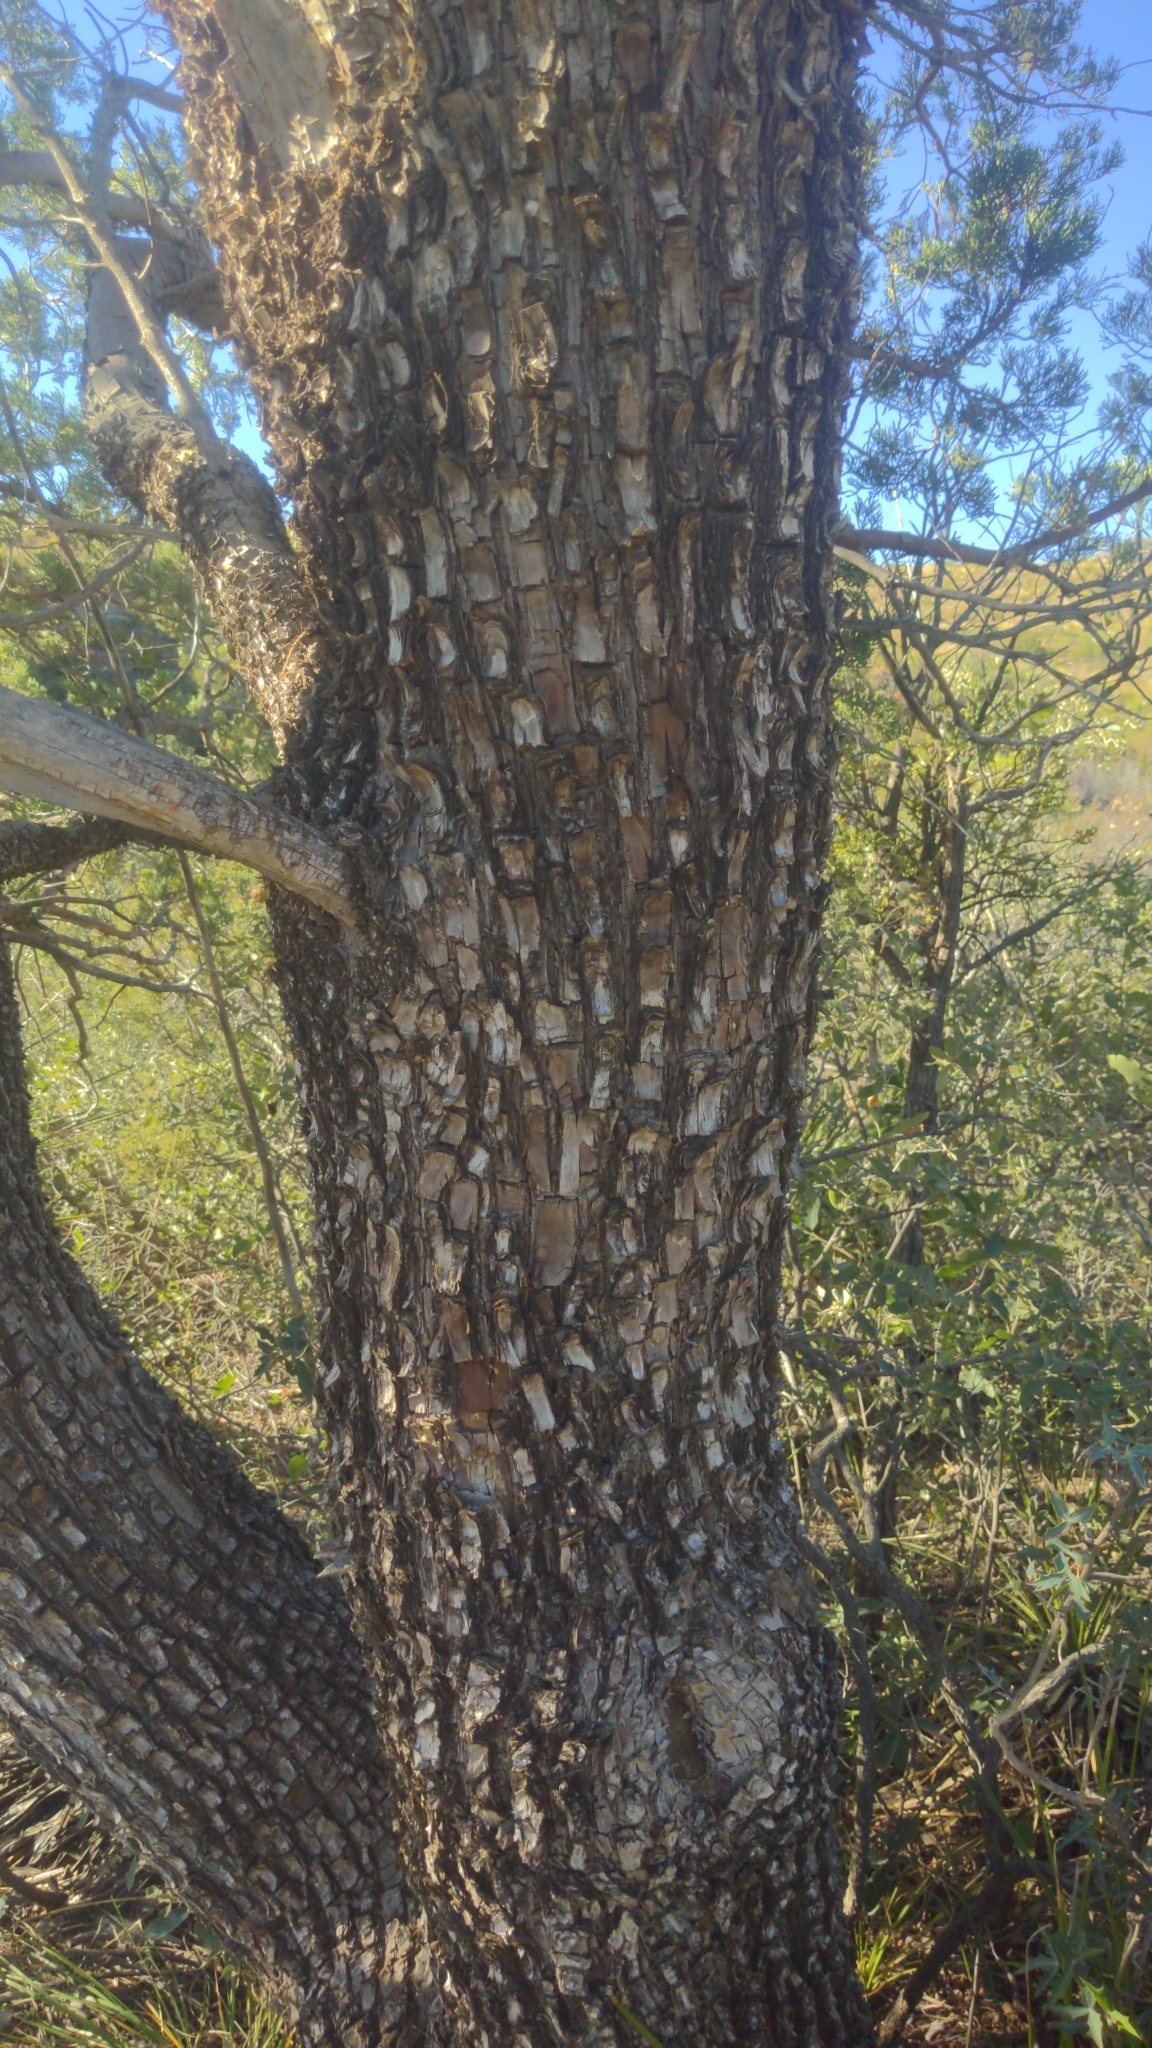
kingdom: Plantae
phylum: Tracheophyta
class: Pinopsida
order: Pinales
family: Cupressaceae
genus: Juniperus
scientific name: Juniperus deppeana
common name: Alligator juniper
